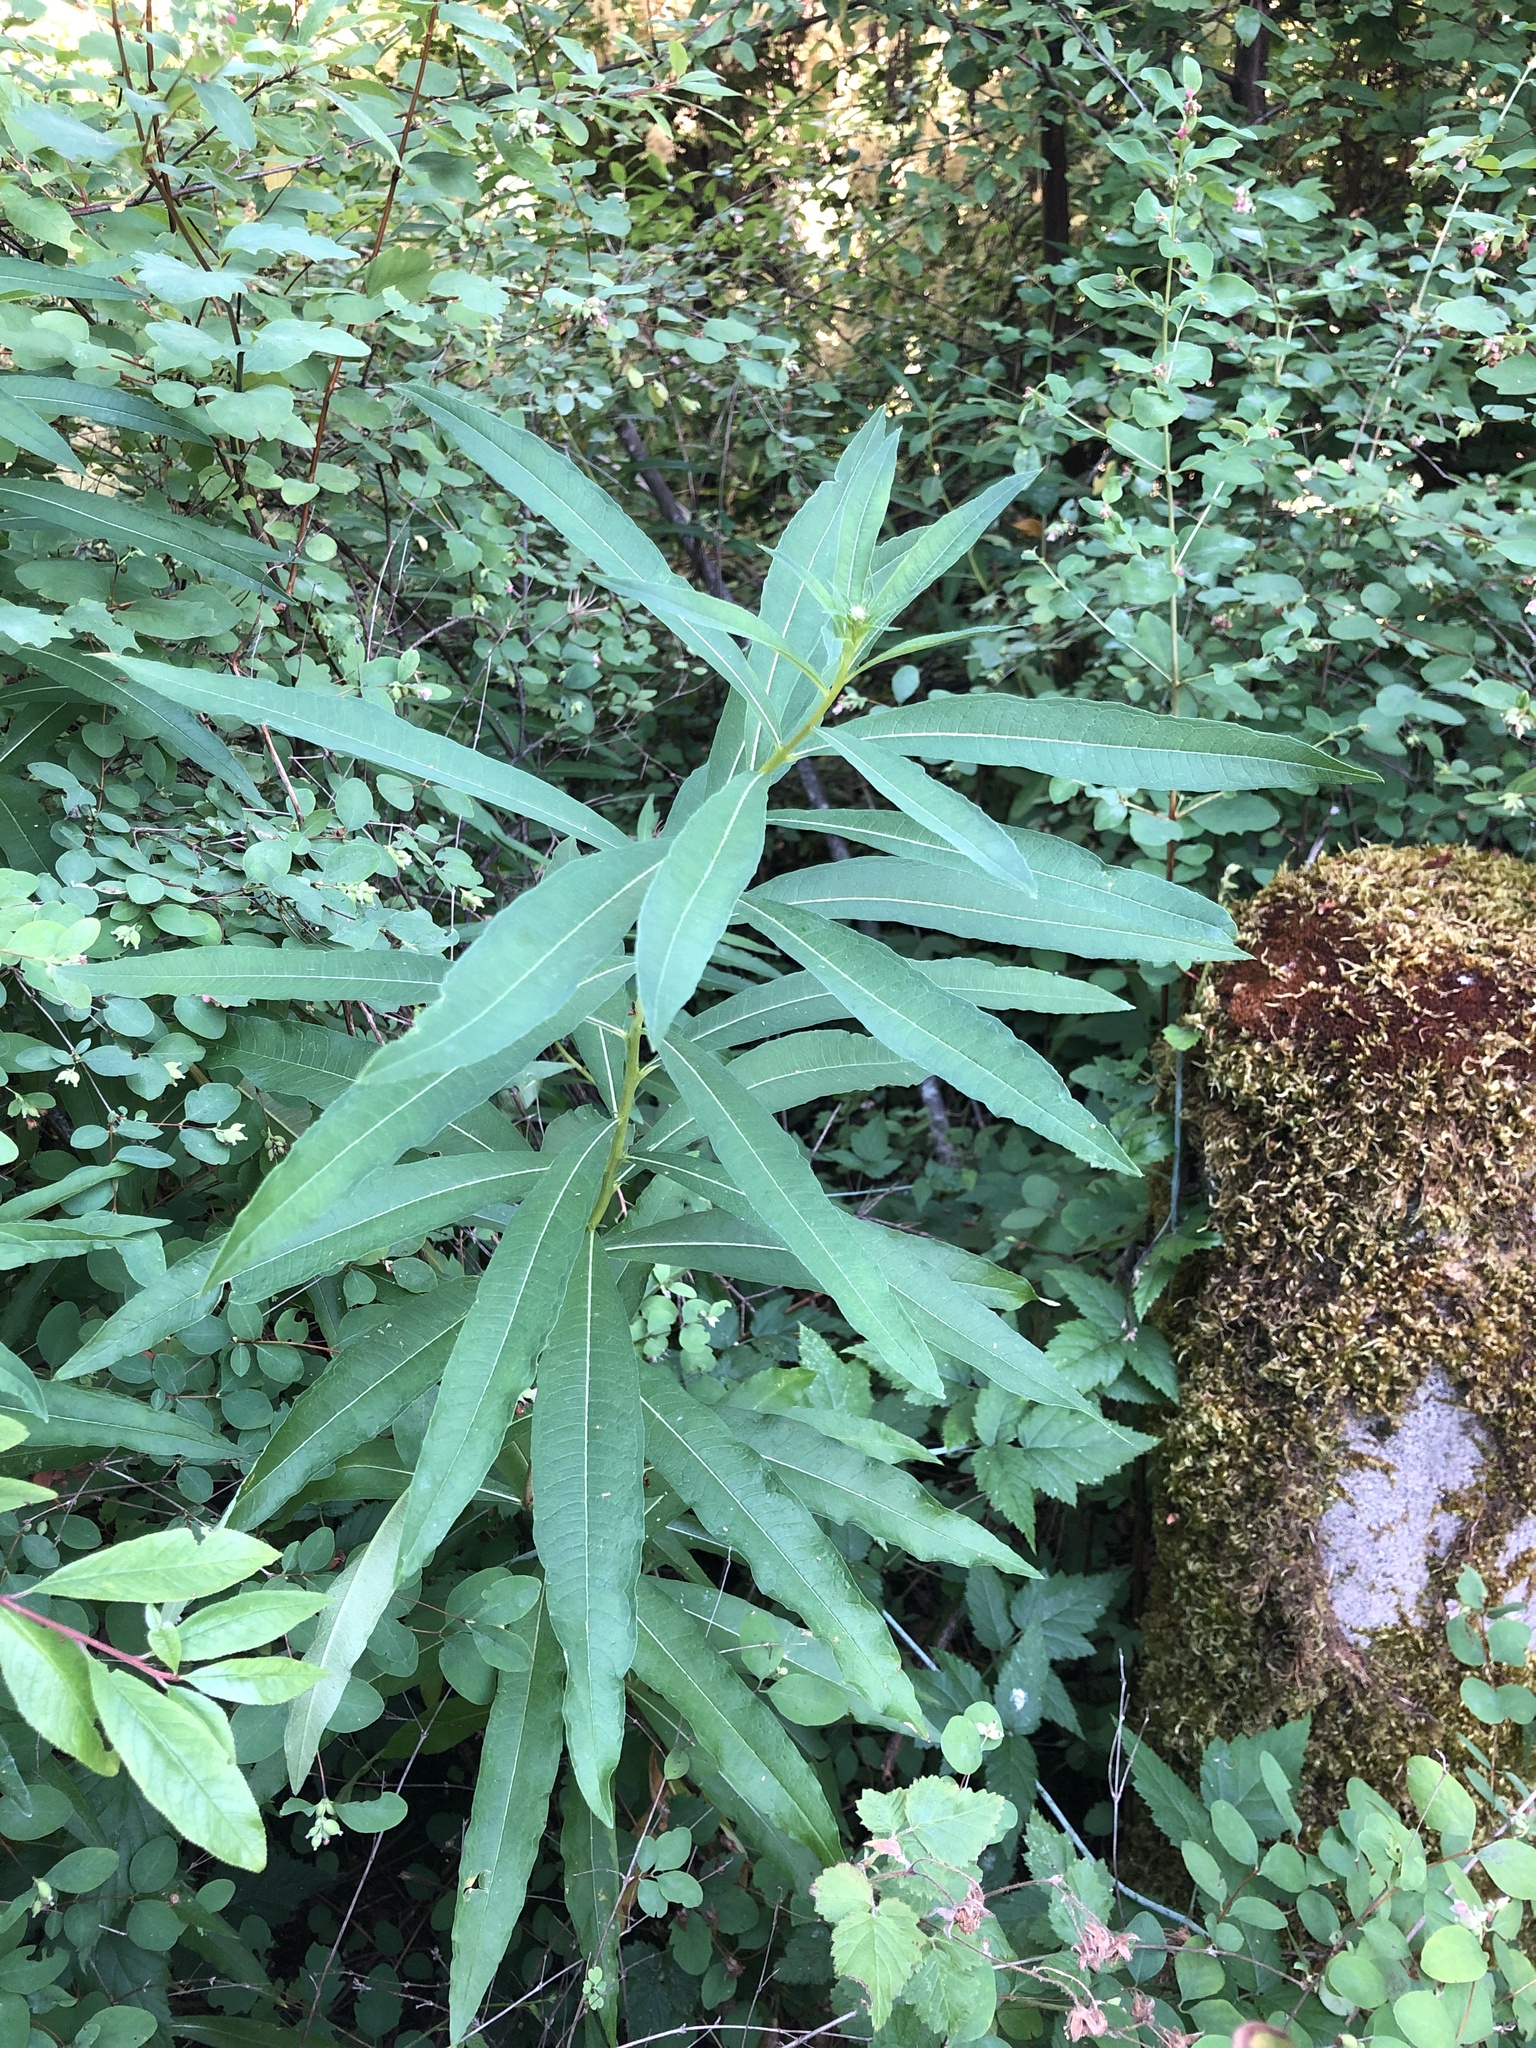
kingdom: Plantae
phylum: Tracheophyta
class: Magnoliopsida
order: Myrtales
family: Onagraceae
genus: Chamaenerion
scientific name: Chamaenerion angustifolium
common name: Fireweed
